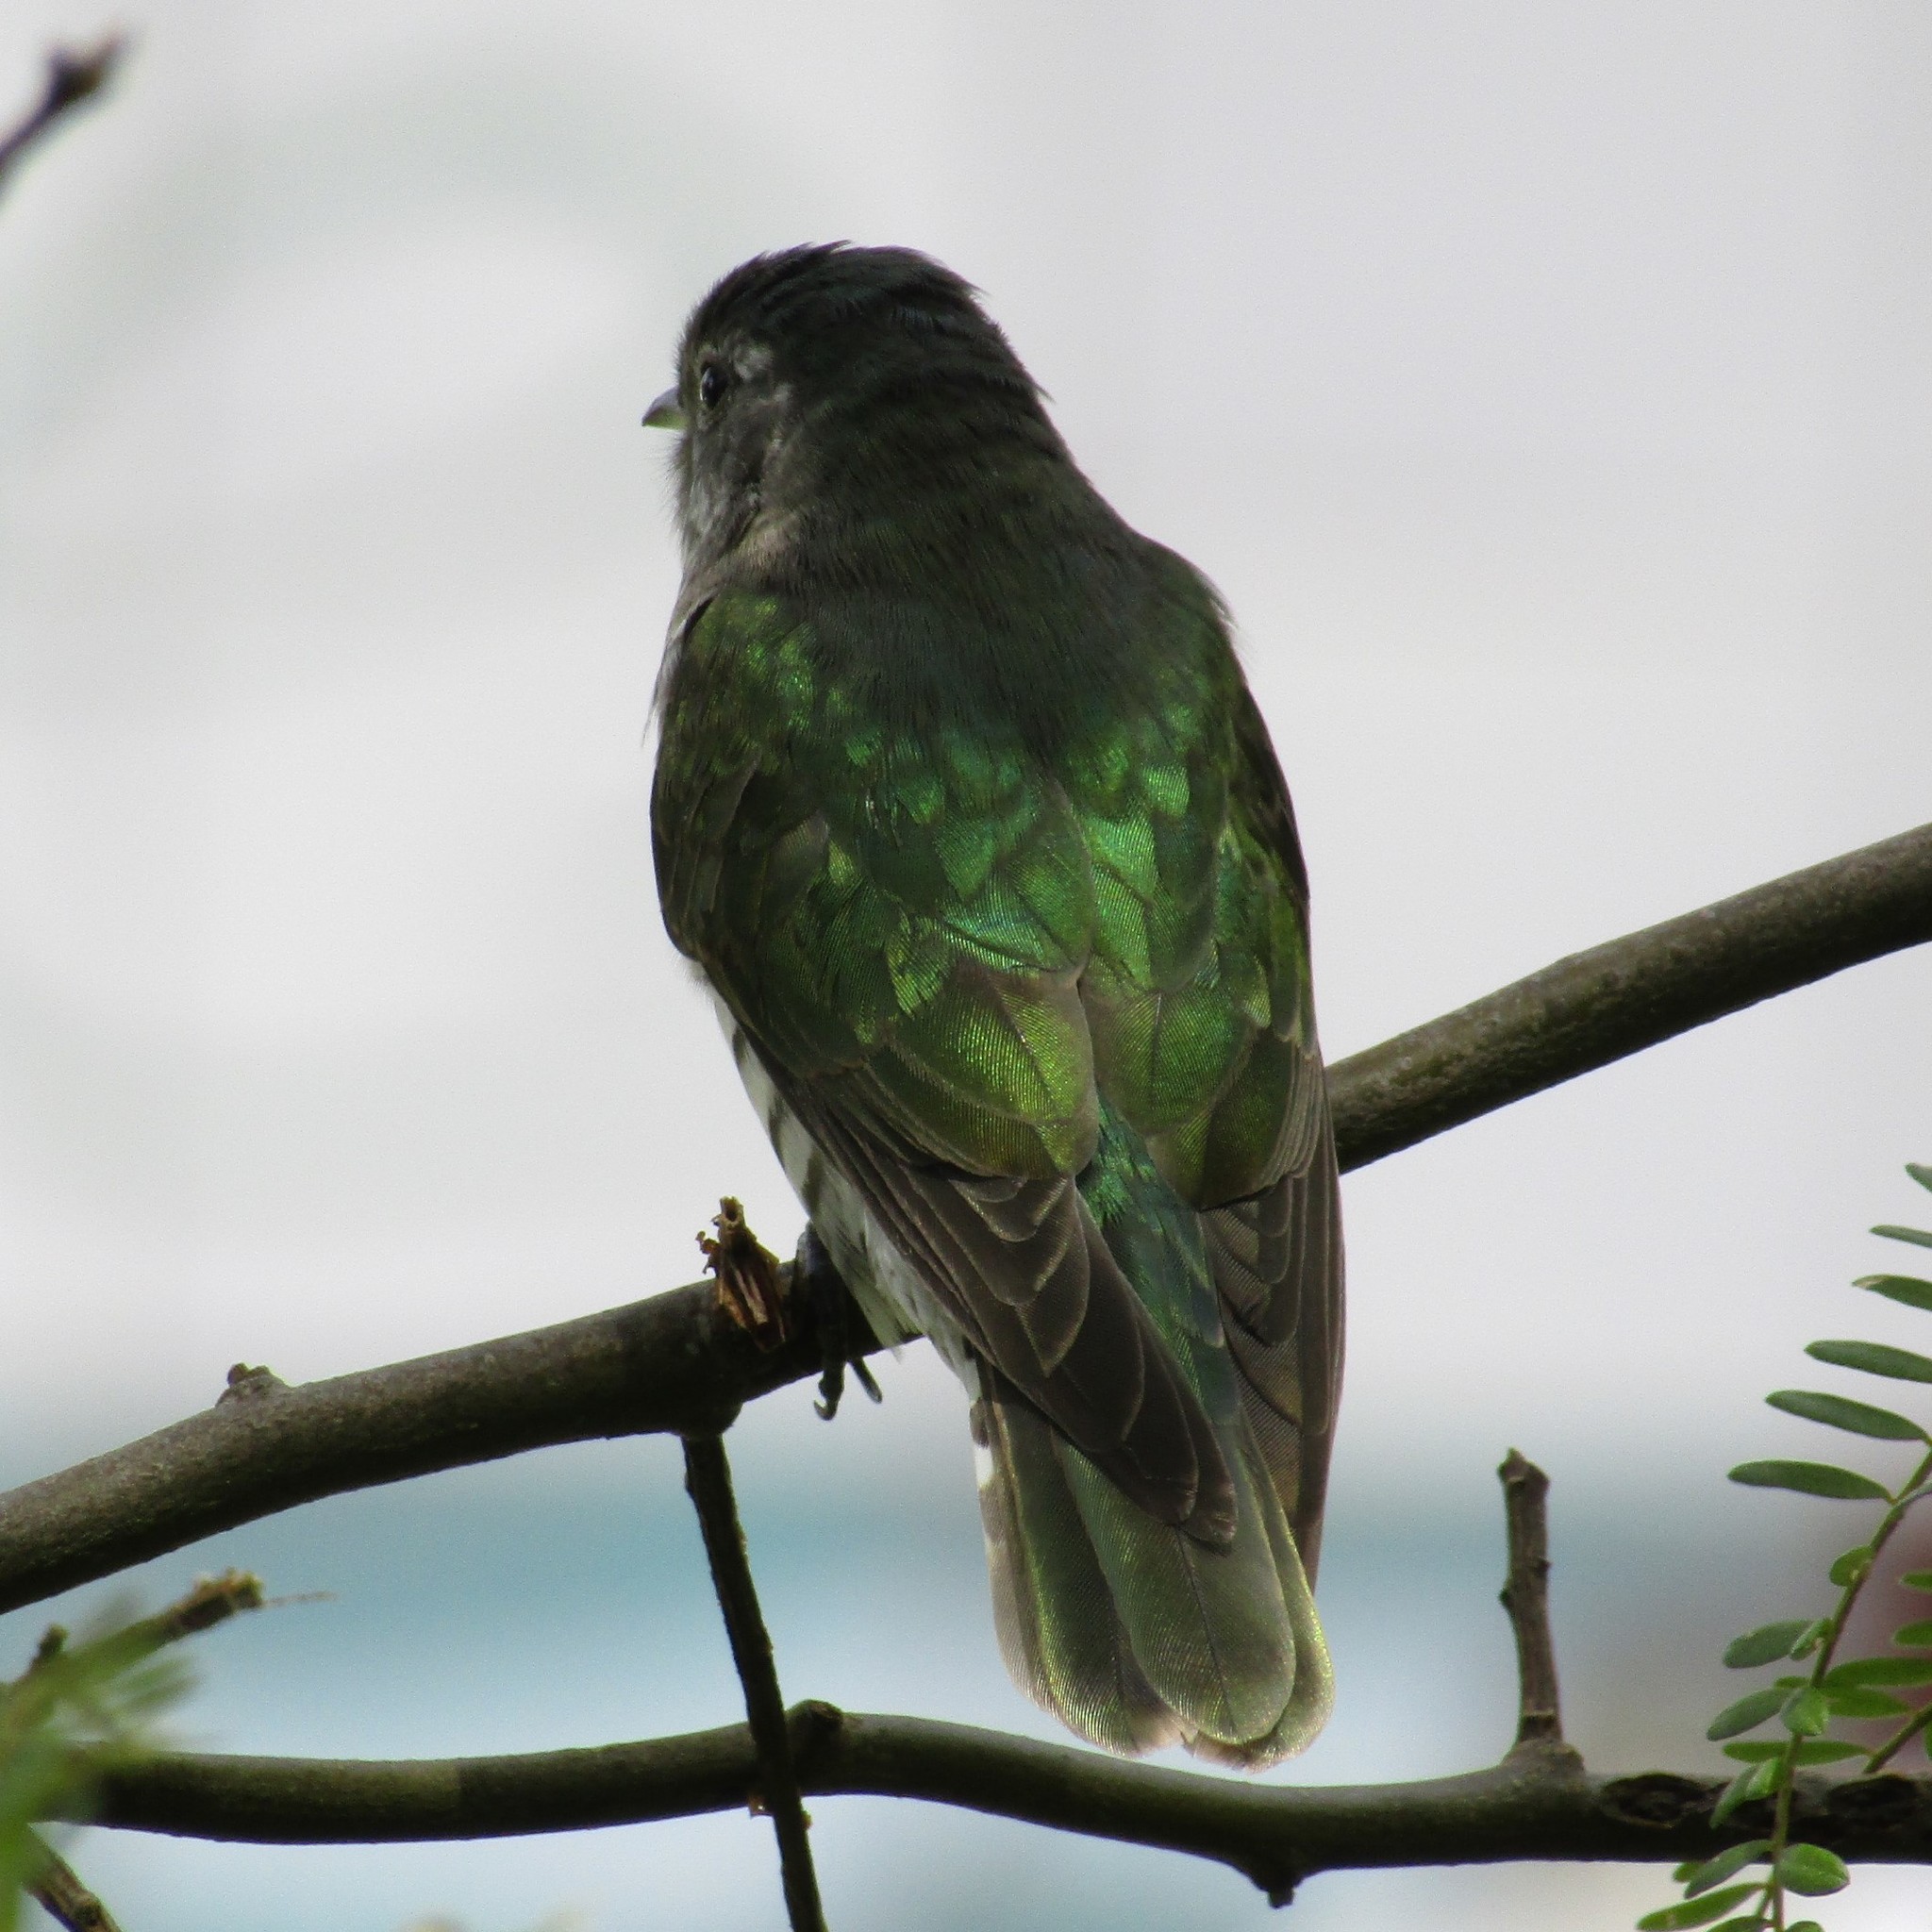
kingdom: Animalia
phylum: Chordata
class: Aves
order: Cuculiformes
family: Cuculidae
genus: Chrysococcyx
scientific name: Chrysococcyx lucidus
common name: Shining bronze cuckoo
